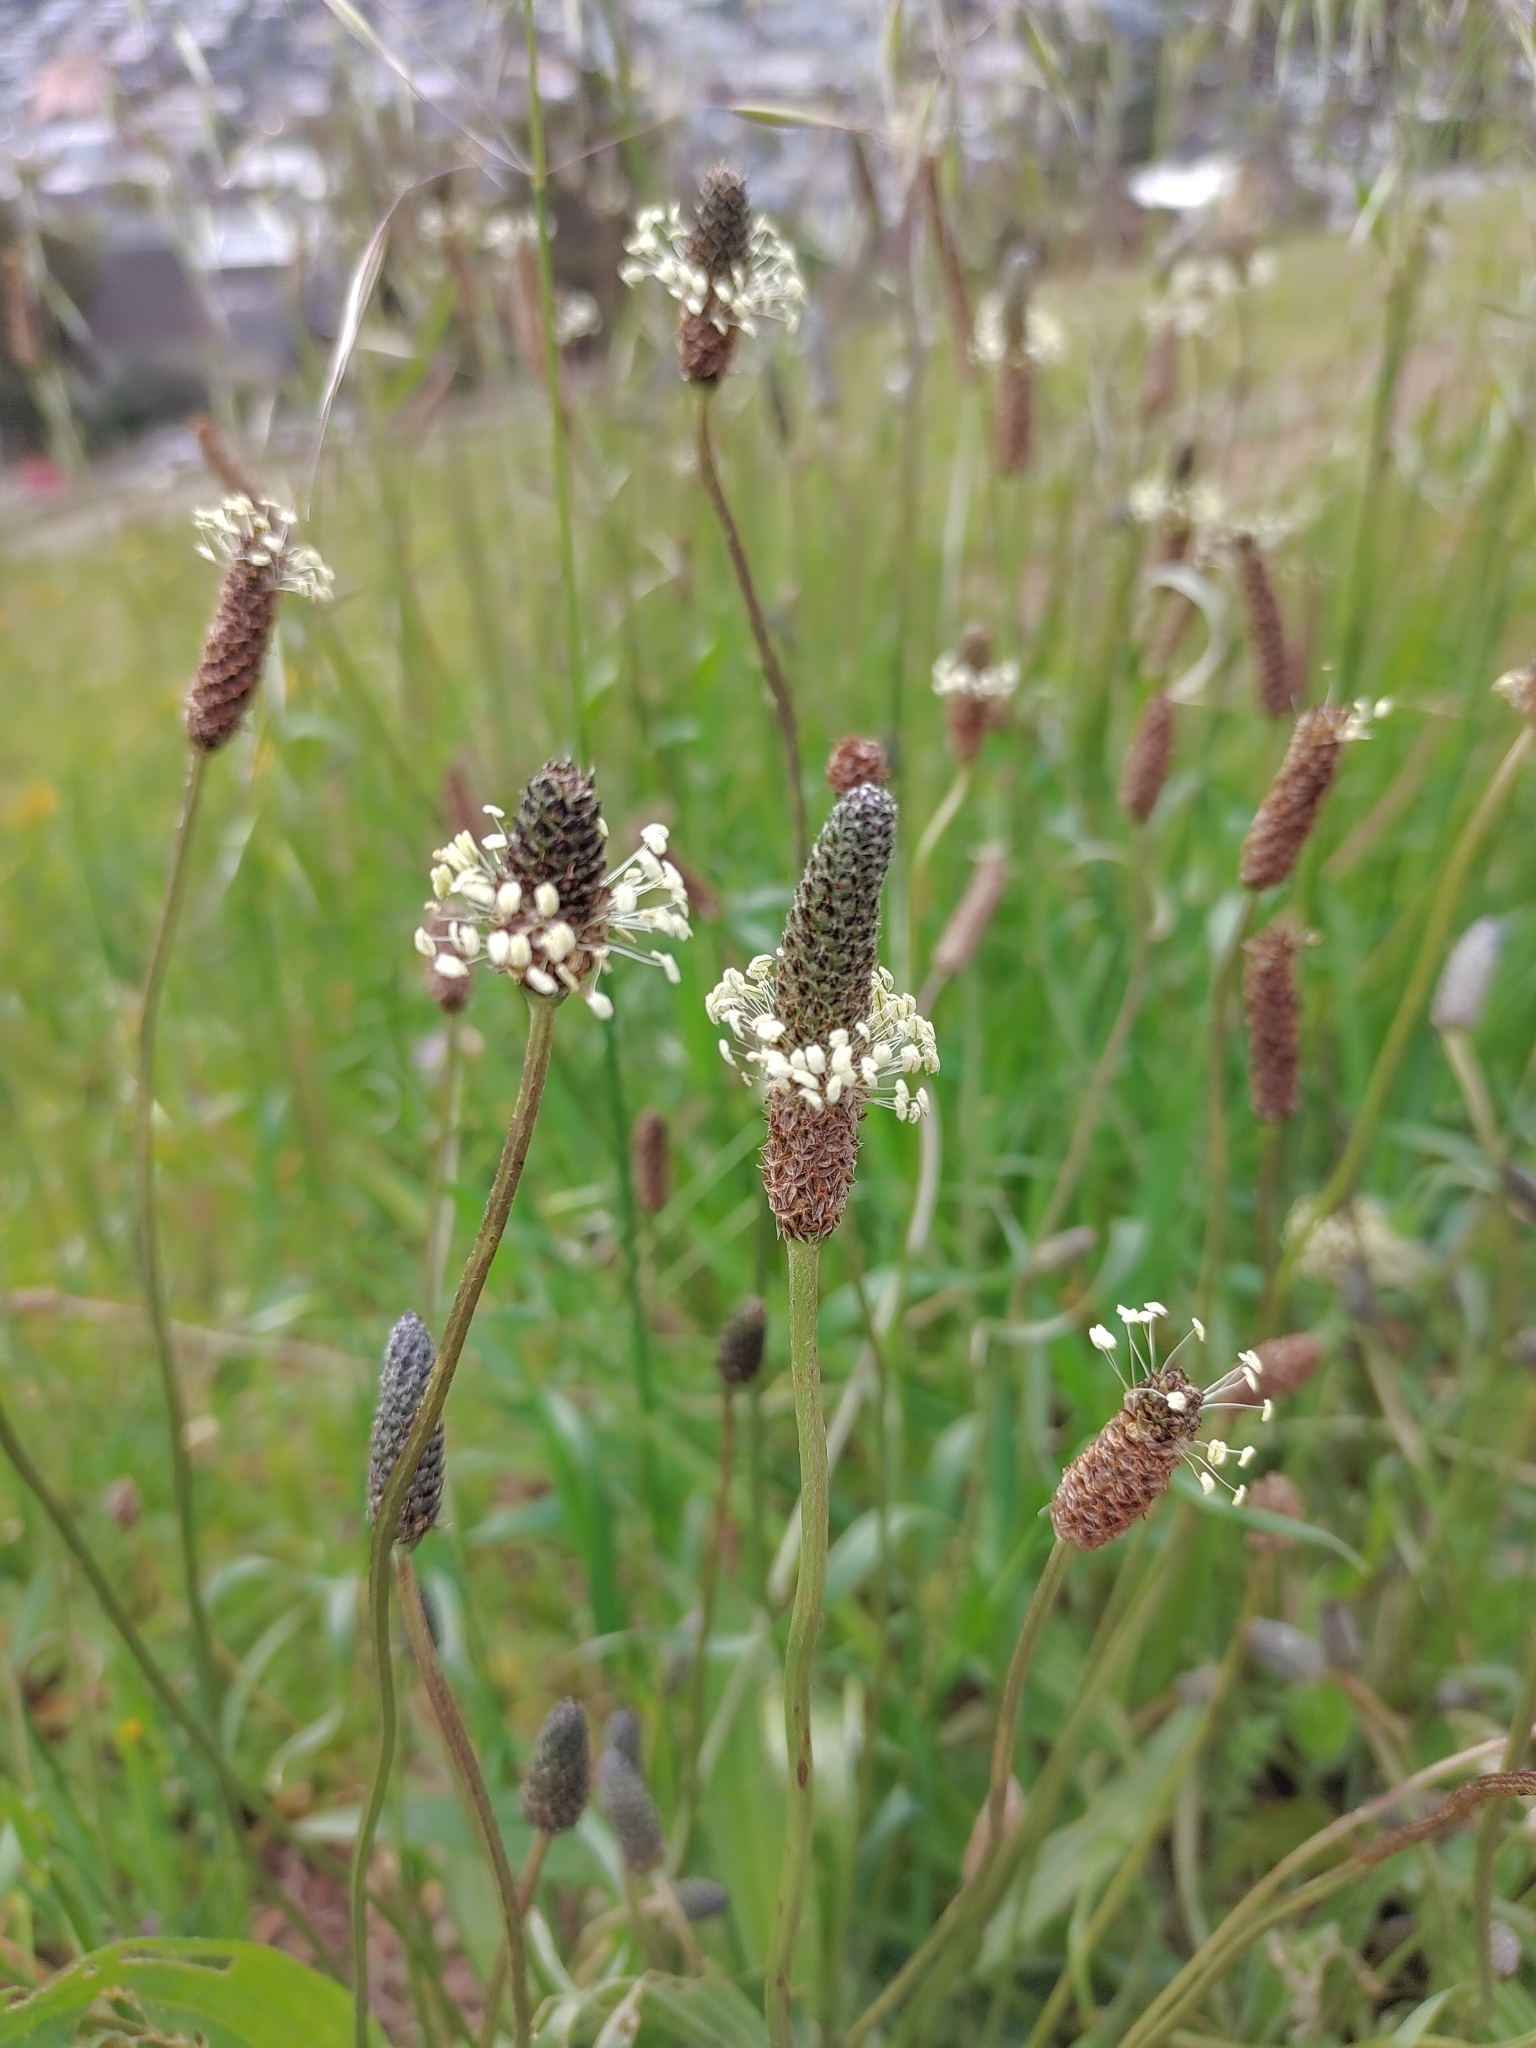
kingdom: Plantae
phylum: Tracheophyta
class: Magnoliopsida
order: Lamiales
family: Plantaginaceae
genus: Plantago
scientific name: Plantago lanceolata
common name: Ribwort plantain
